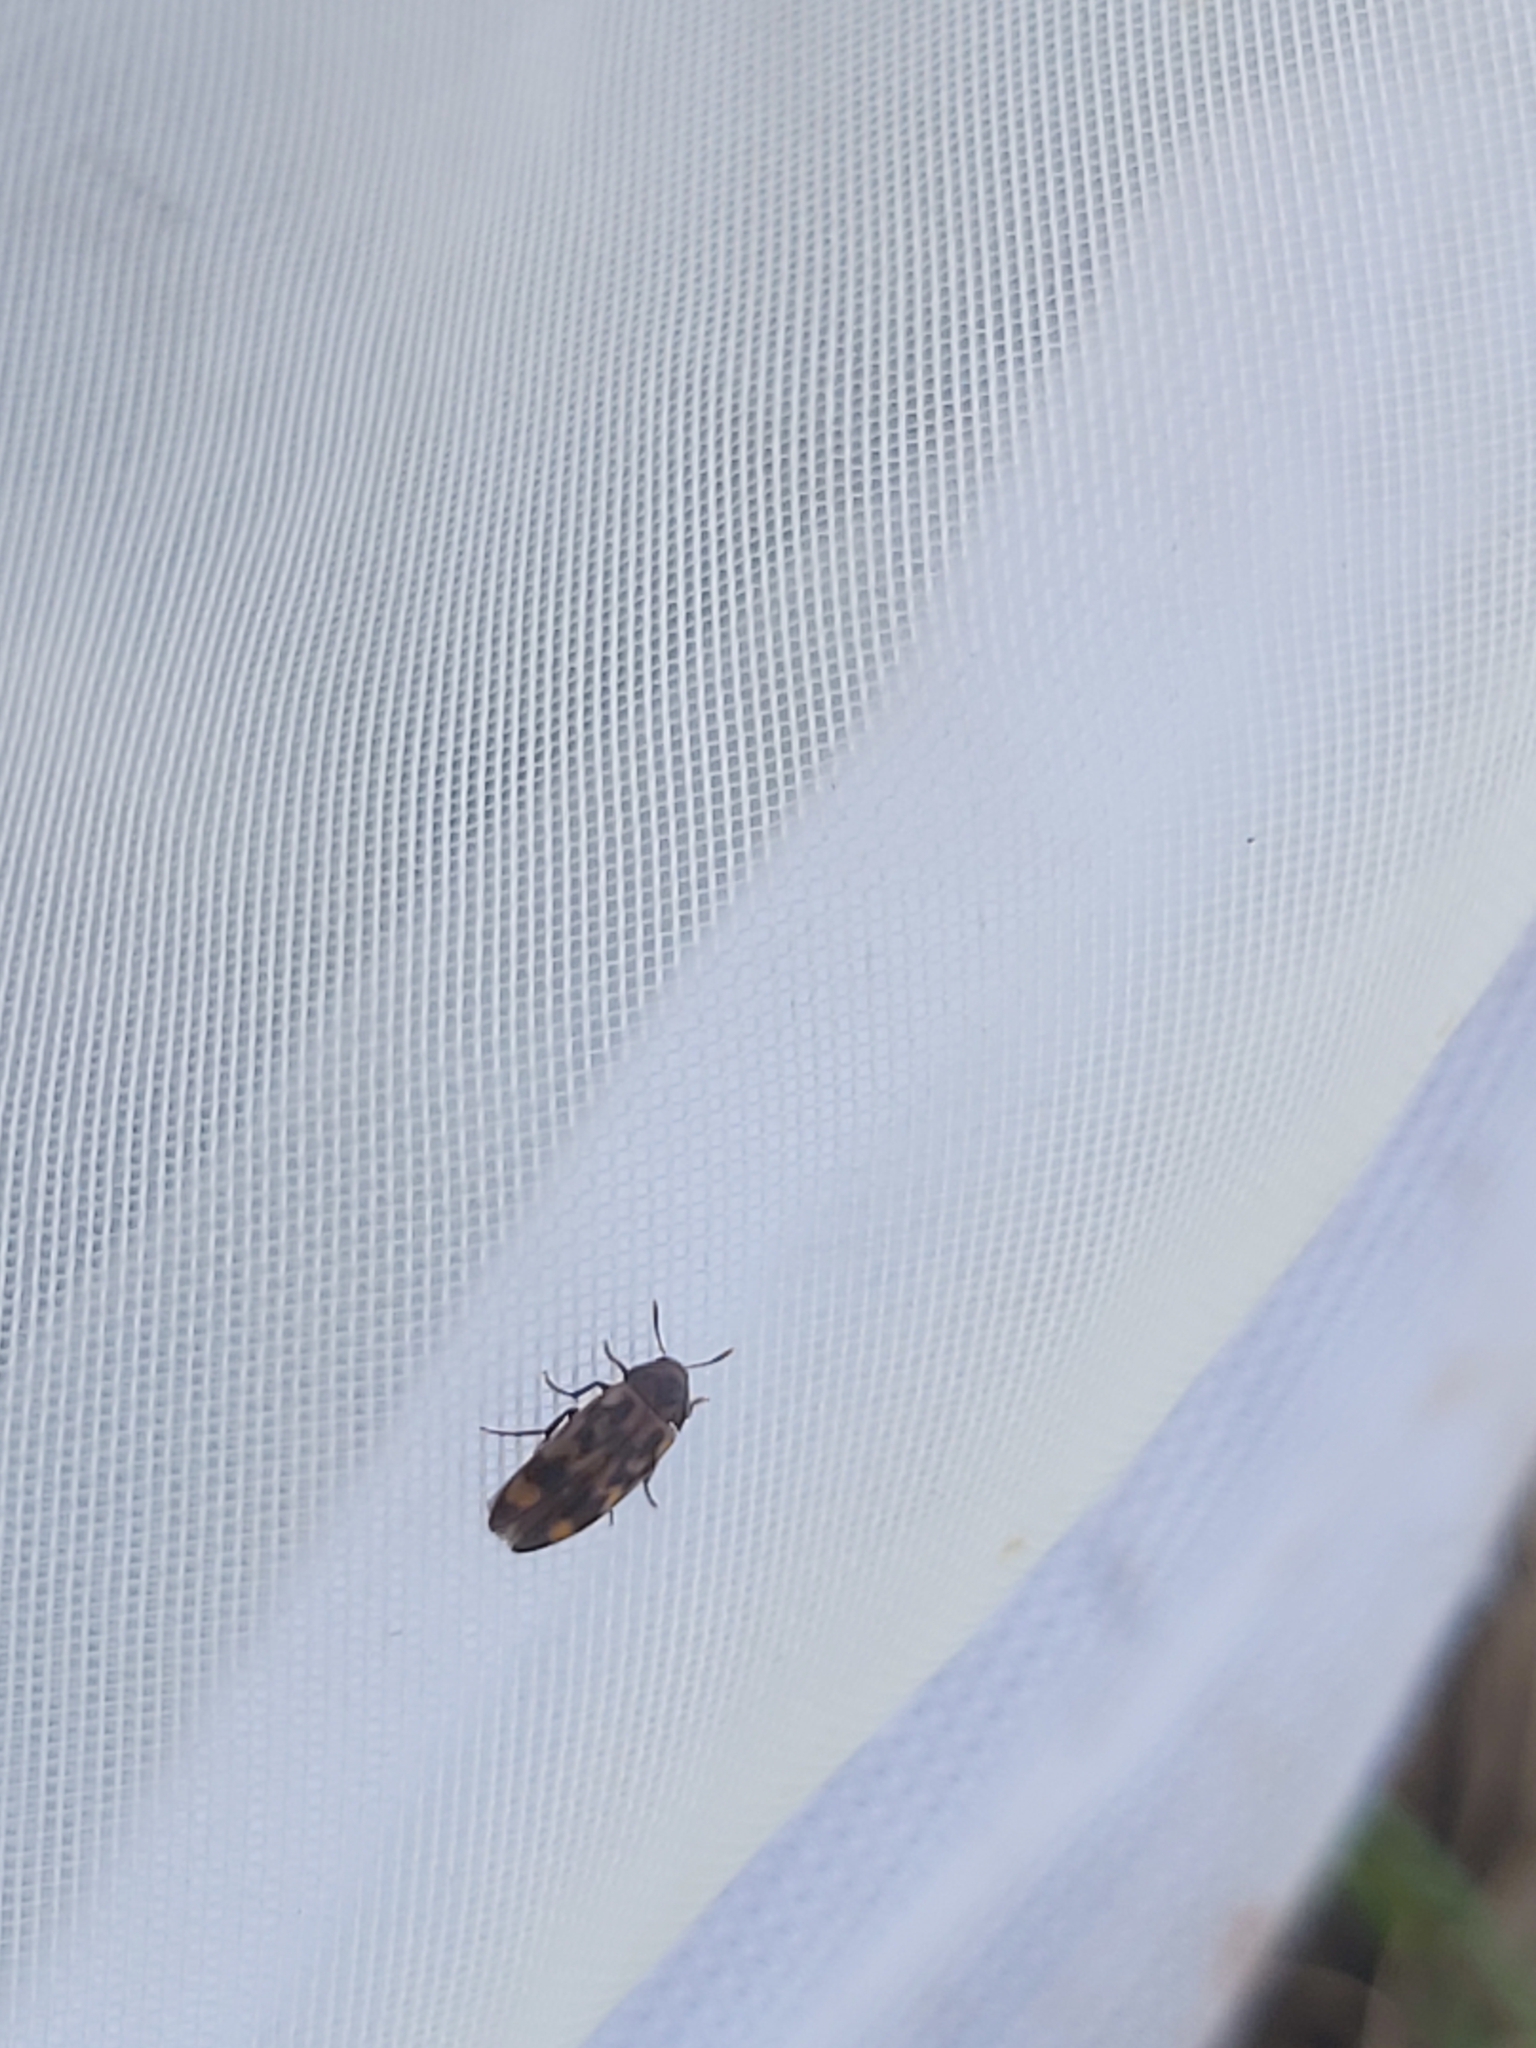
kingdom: Animalia
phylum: Arthropoda
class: Insecta
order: Coleoptera
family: Melandryidae
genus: Orchesia
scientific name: Orchesia undulata
